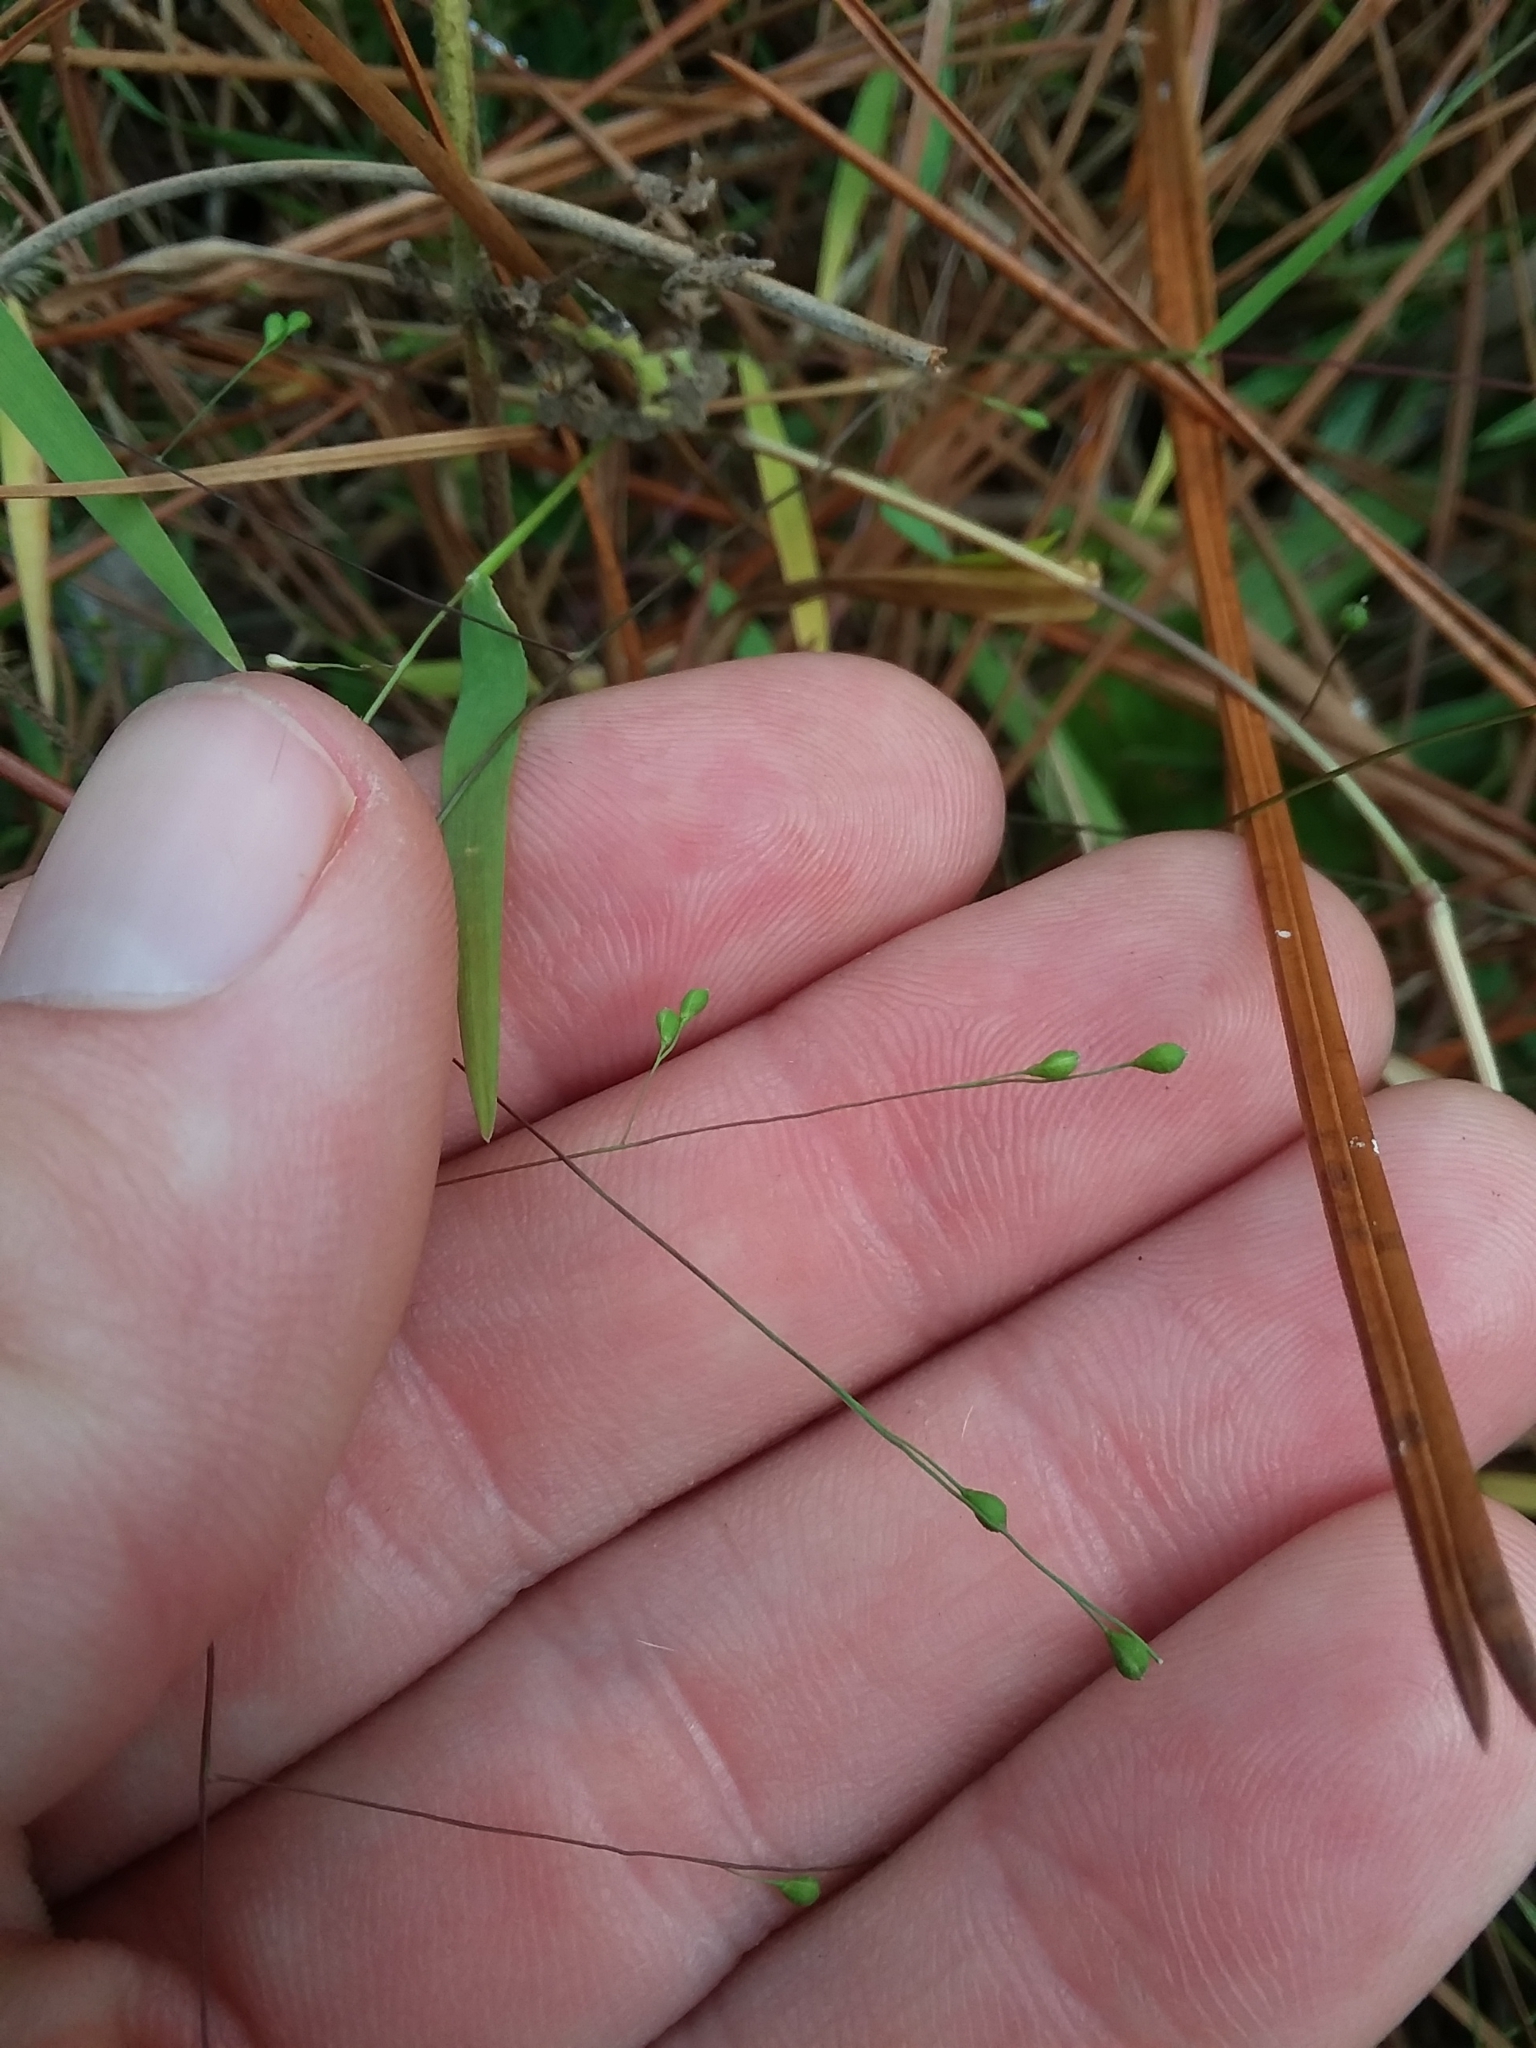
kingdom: Plantae
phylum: Tracheophyta
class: Liliopsida
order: Poales
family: Poaceae
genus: Kellochloa
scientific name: Kellochloa verrucosa
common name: Warty panic grass
